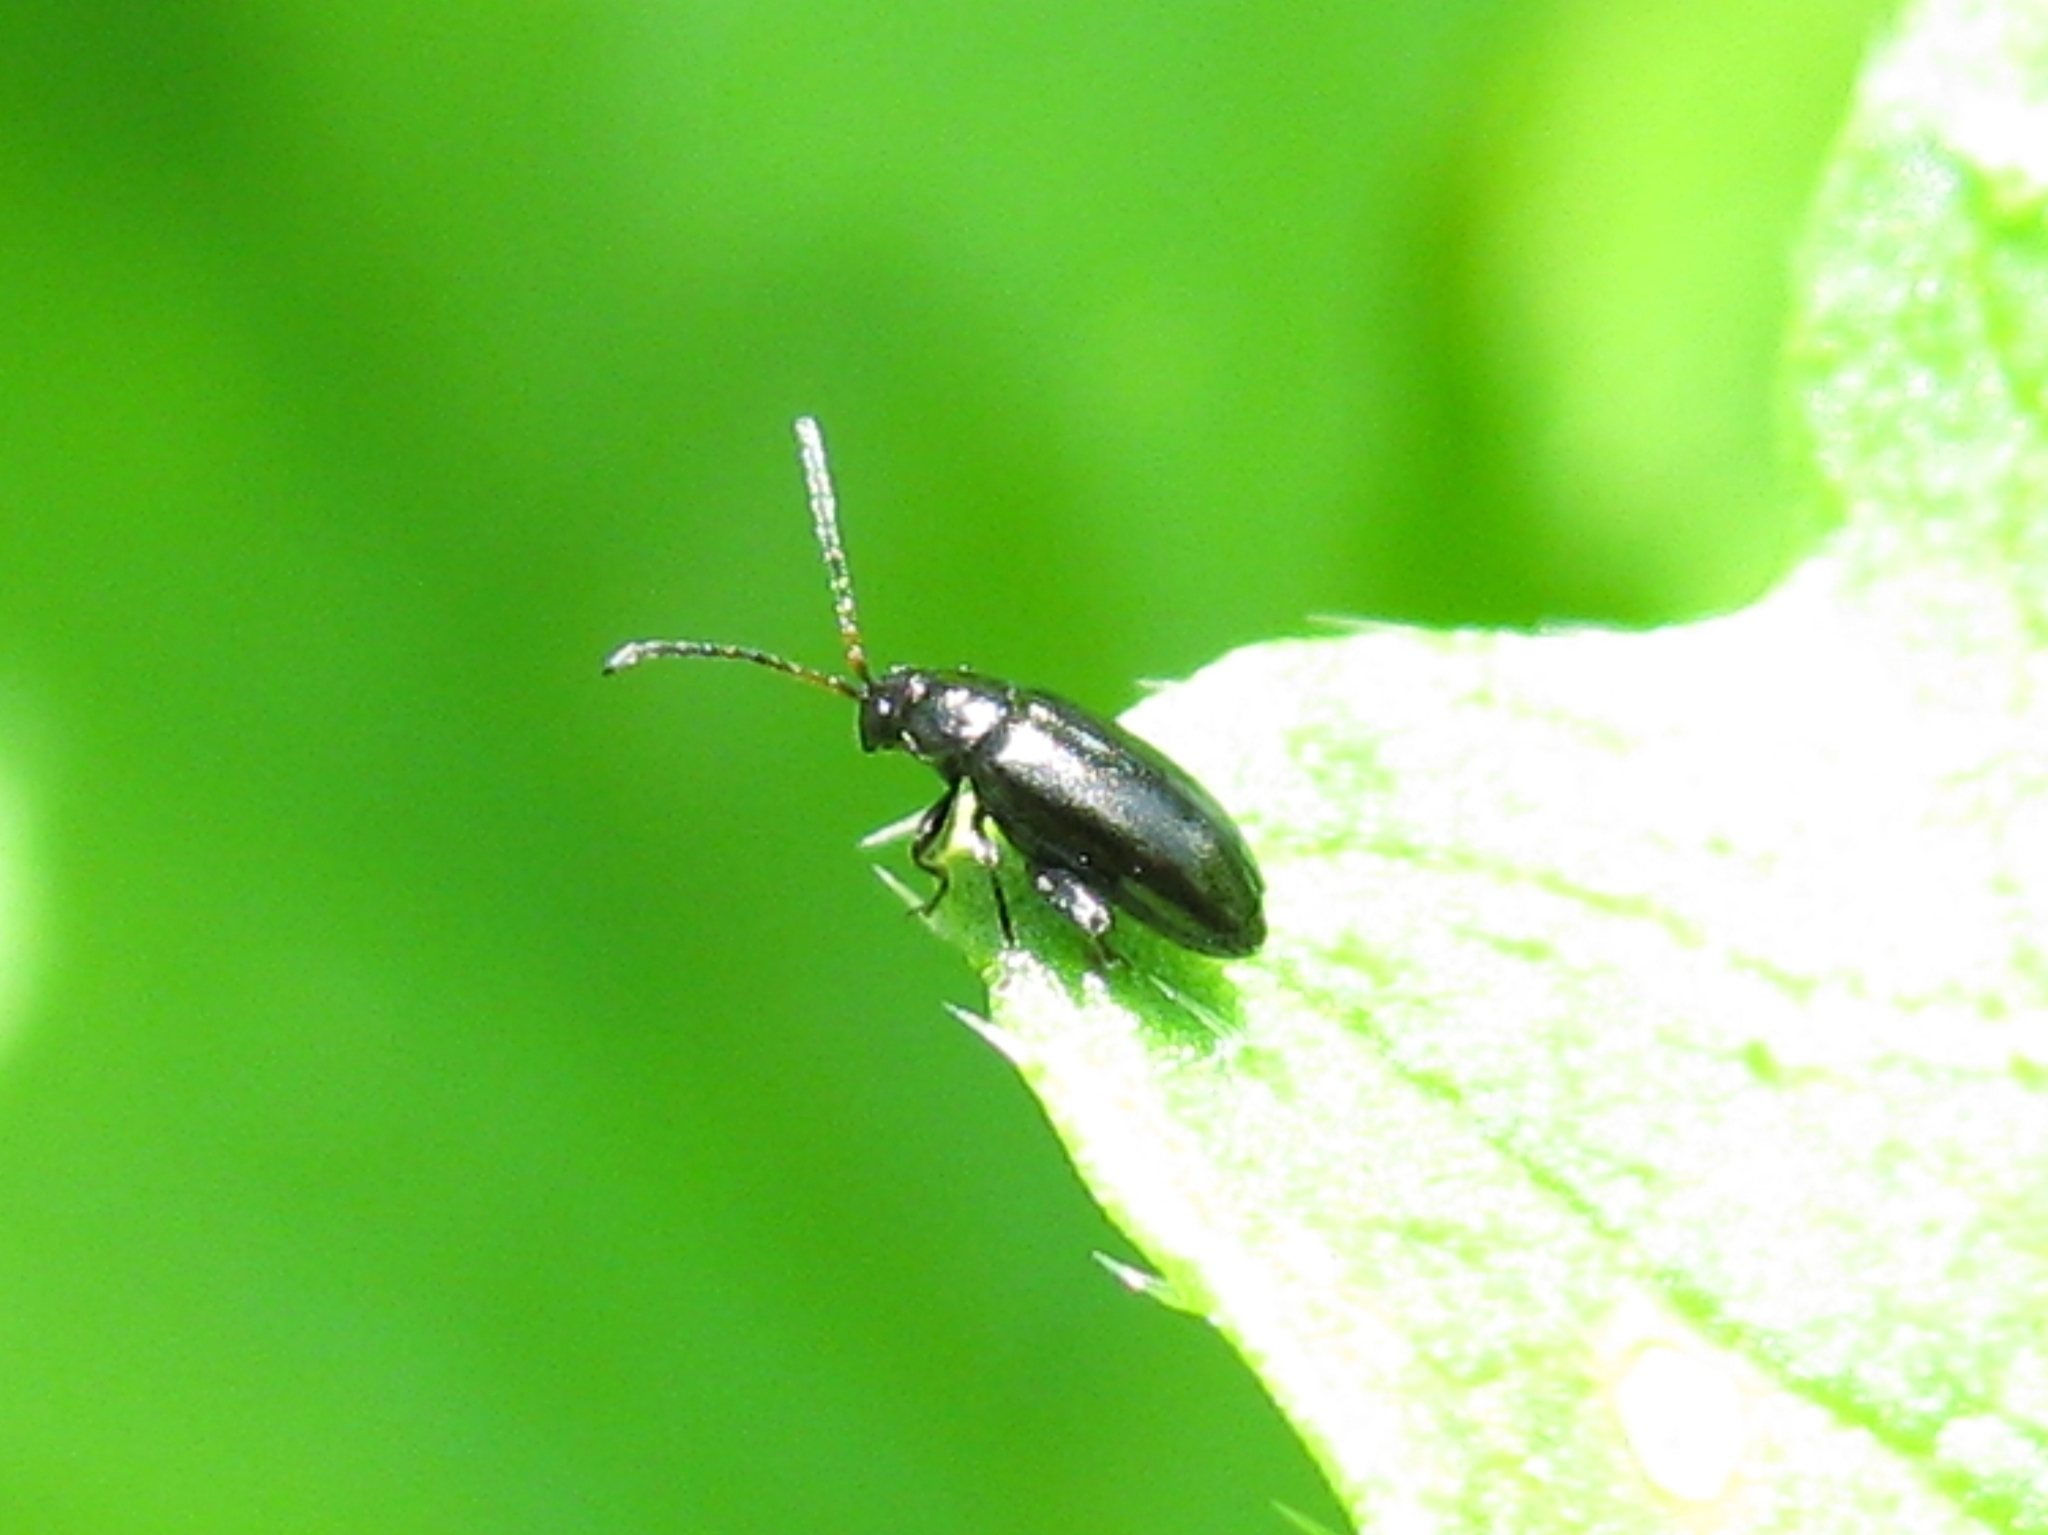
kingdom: Animalia
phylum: Arthropoda
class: Insecta
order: Coleoptera
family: Chrysomelidae
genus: Phyllotreta
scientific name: Phyllotreta
